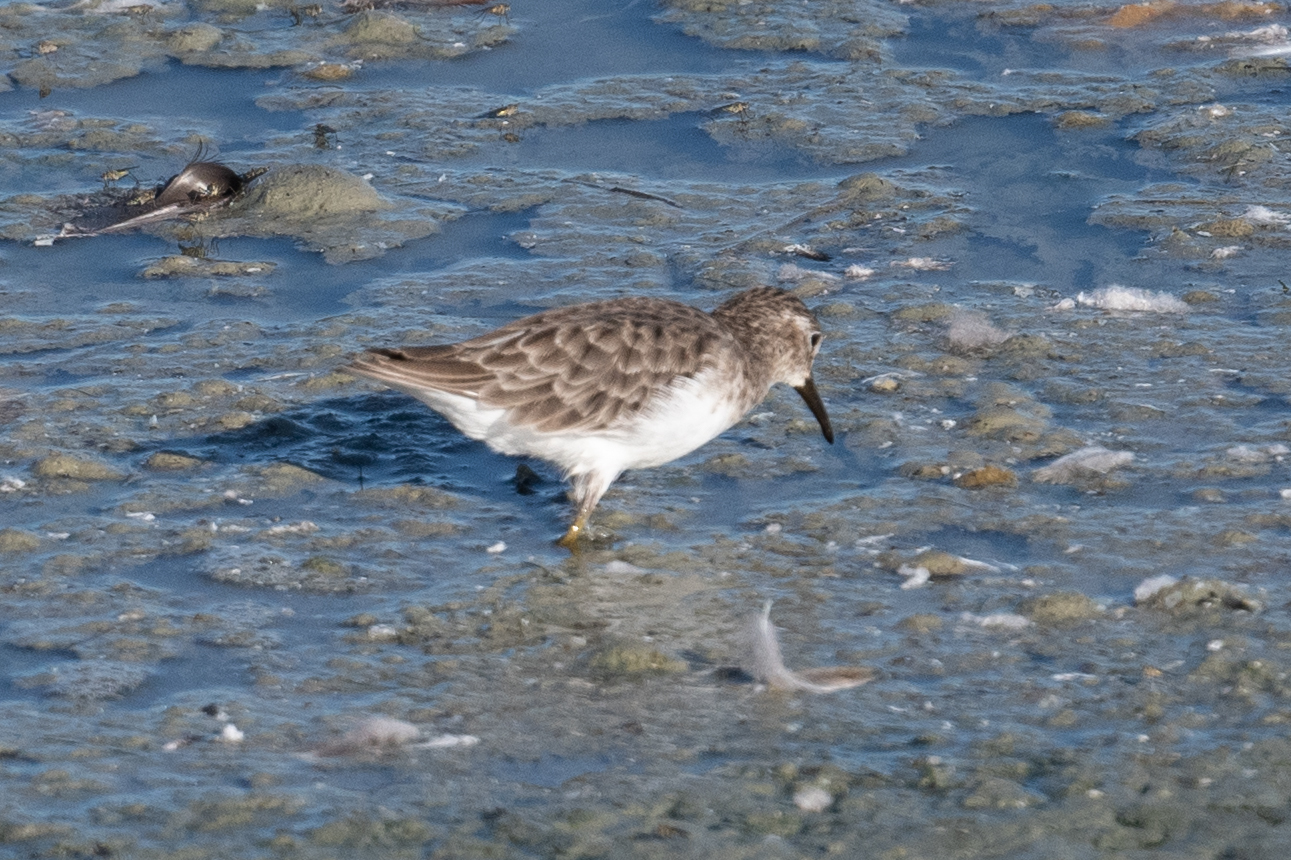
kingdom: Animalia
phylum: Chordata
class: Aves
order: Charadriiformes
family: Scolopacidae
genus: Calidris
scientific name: Calidris minutilla
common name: Least sandpiper
